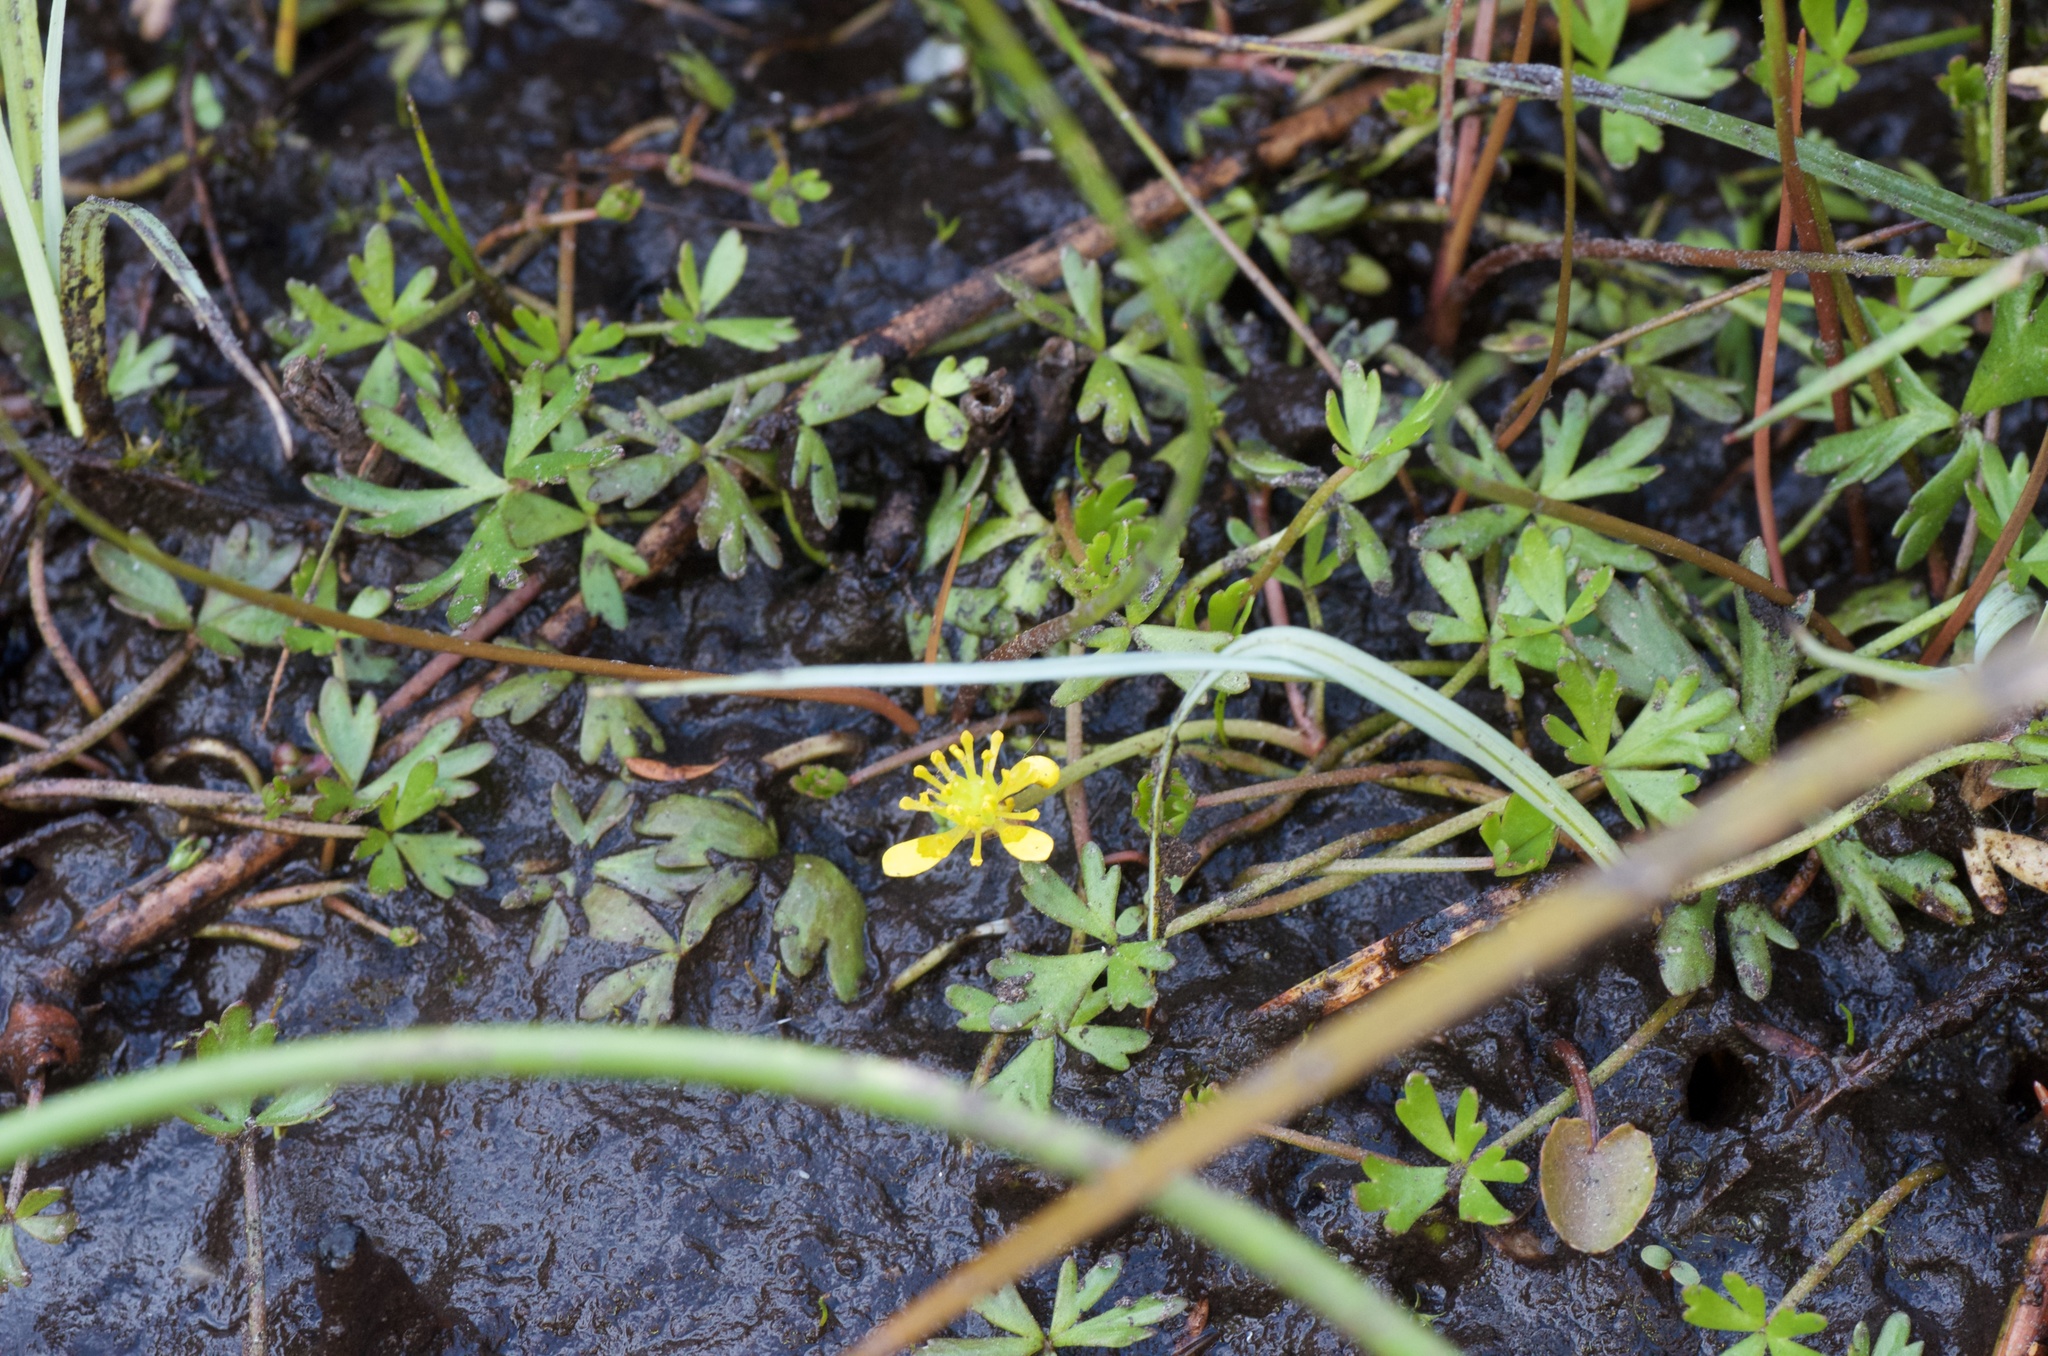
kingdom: Plantae
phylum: Tracheophyta
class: Magnoliopsida
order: Ranunculales
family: Ranunculaceae
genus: Ranunculus
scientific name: Ranunculus glabrifolius
